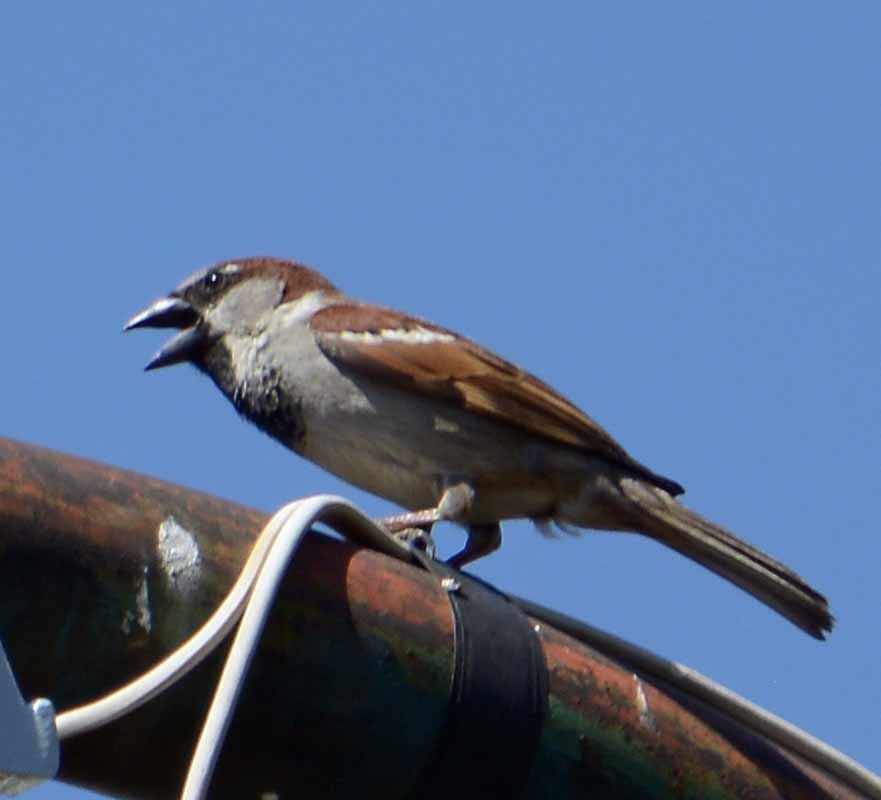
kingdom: Animalia
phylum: Chordata
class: Aves
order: Passeriformes
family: Passeridae
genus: Passer
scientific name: Passer domesticus
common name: House sparrow
